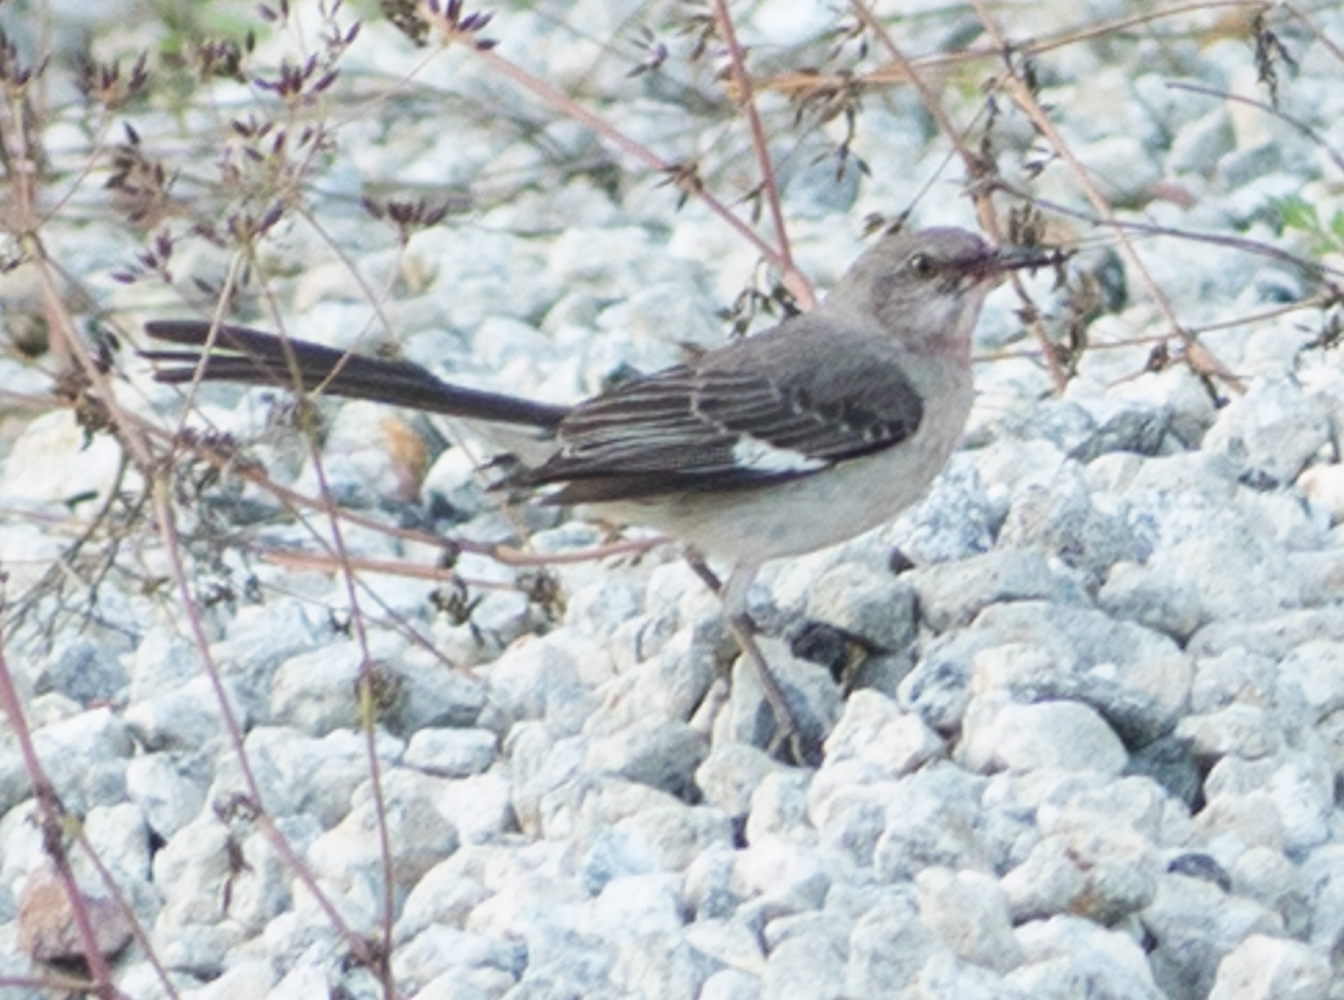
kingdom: Animalia
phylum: Chordata
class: Aves
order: Passeriformes
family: Mimidae
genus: Mimus
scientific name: Mimus polyglottos
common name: Northern mockingbird
